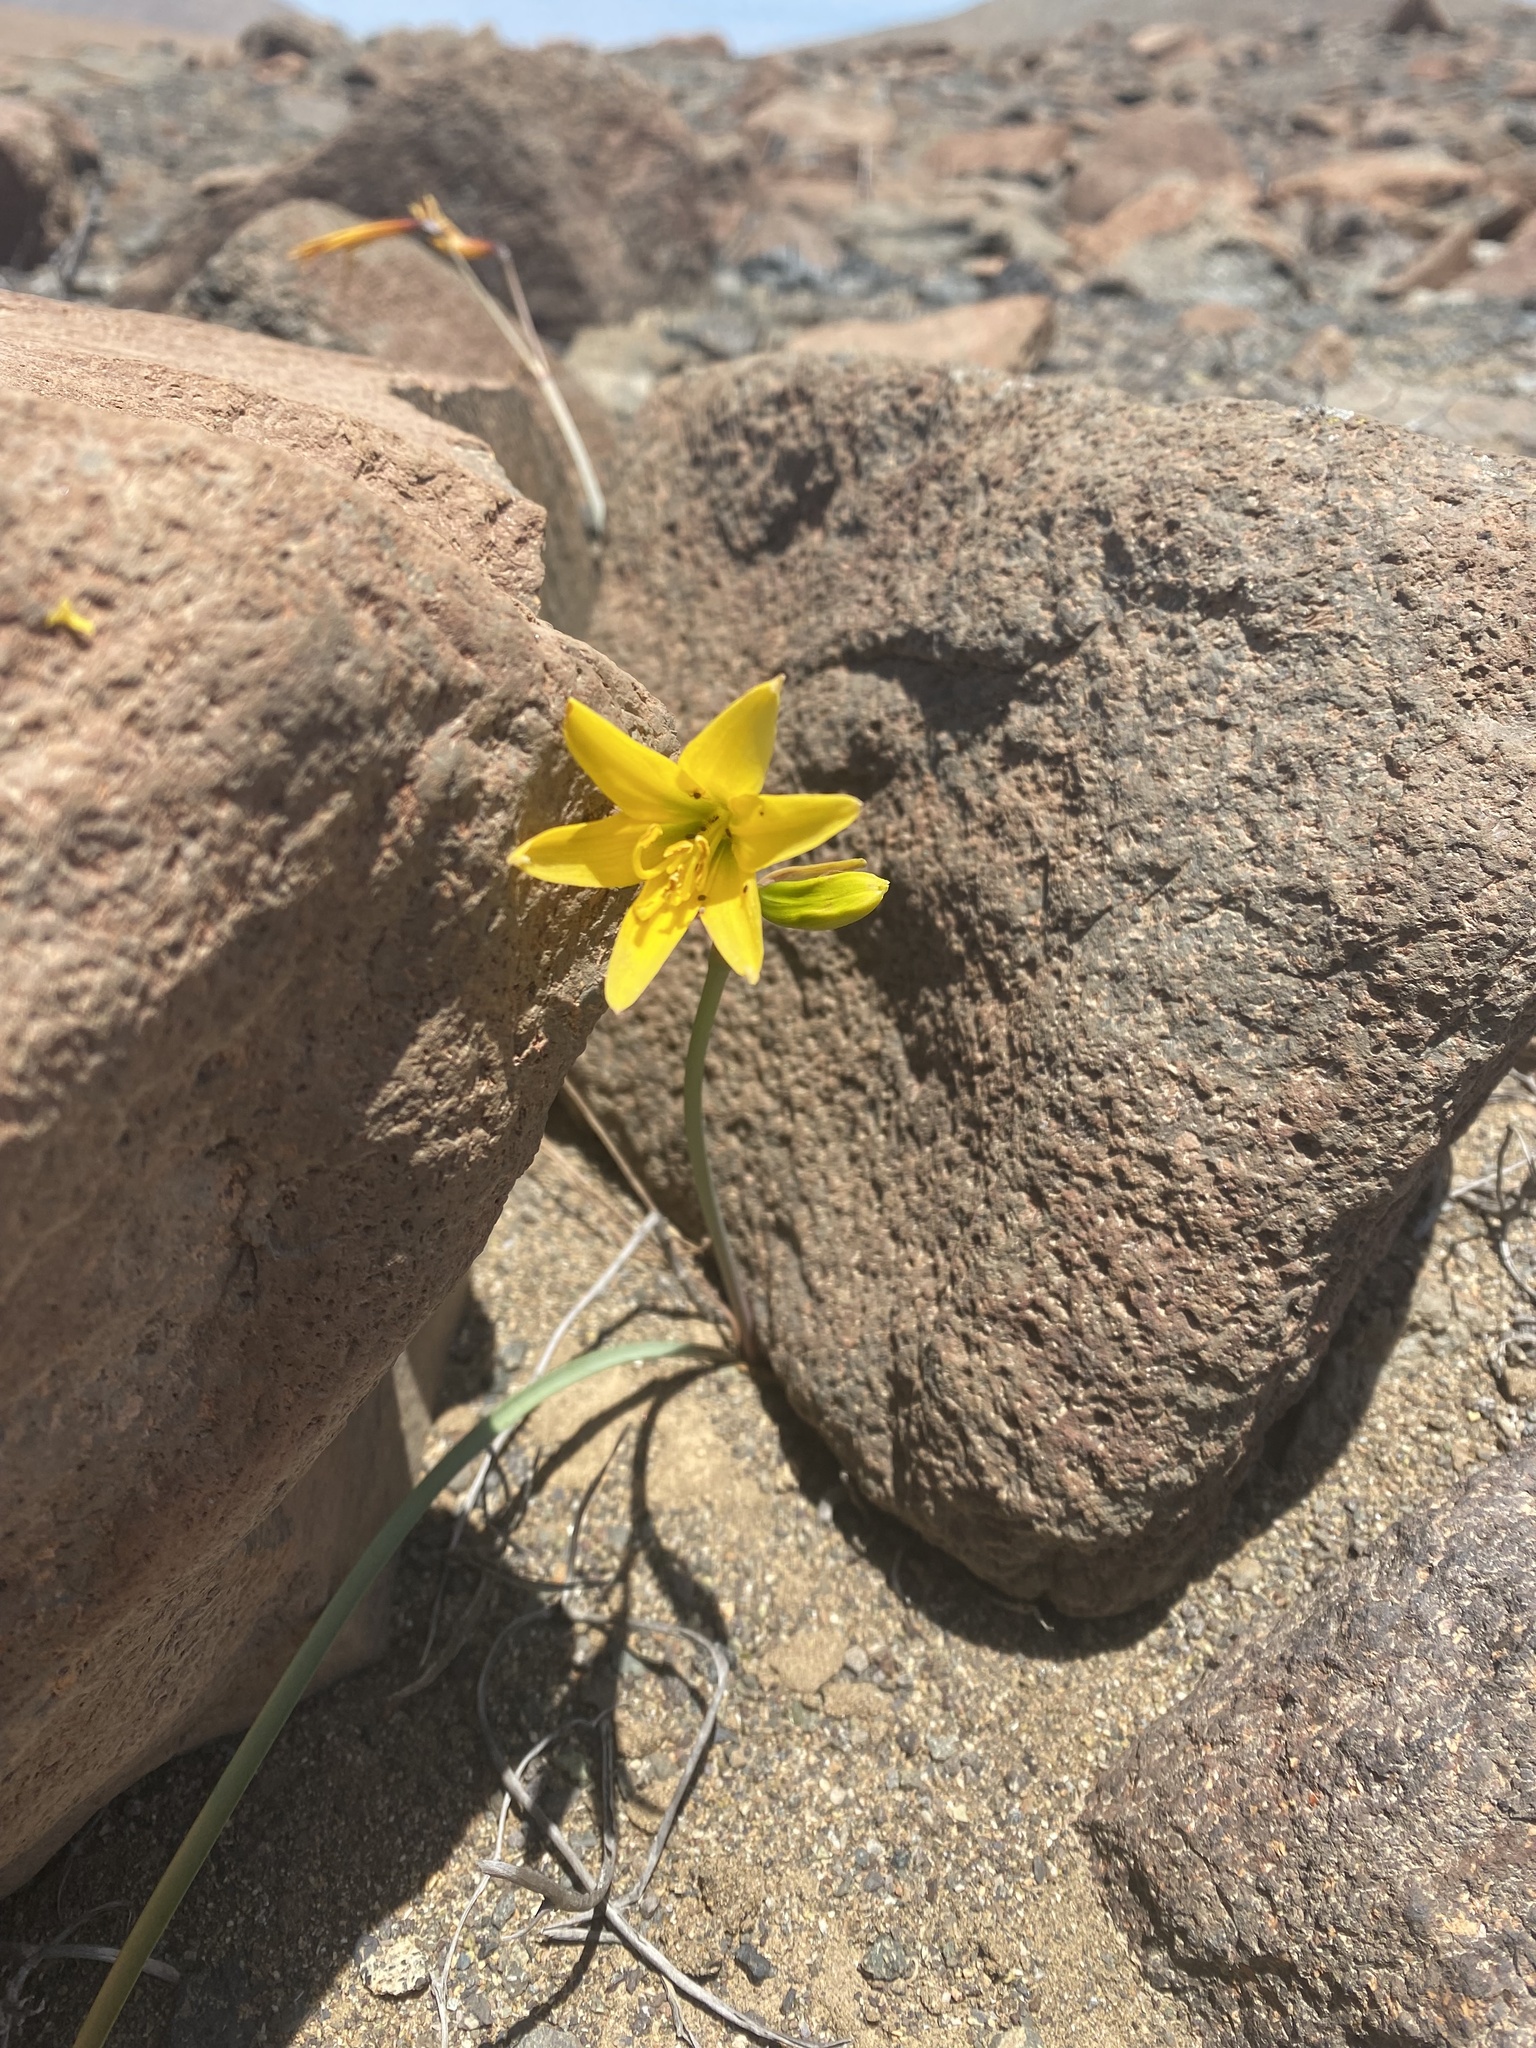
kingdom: Plantae
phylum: Tracheophyta
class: Liliopsida
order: Asparagales
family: Amaryllidaceae
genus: Zephyranthes
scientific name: Zephyranthes bagnoldii
